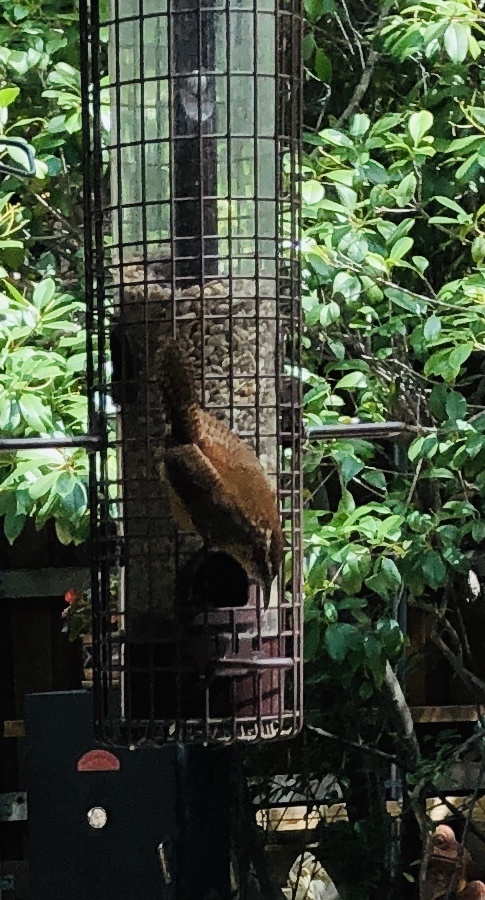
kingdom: Animalia
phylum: Chordata
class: Aves
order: Passeriformes
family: Troglodytidae
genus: Thryothorus
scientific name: Thryothorus ludovicianus
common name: Carolina wren
